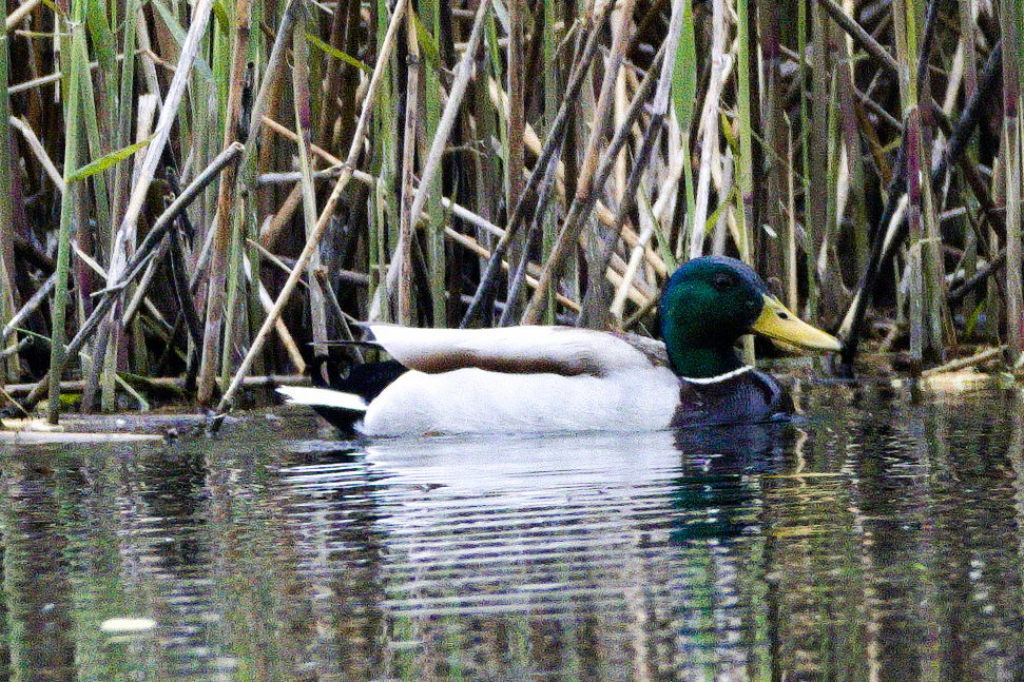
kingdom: Animalia
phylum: Chordata
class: Aves
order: Anseriformes
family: Anatidae
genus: Anas
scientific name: Anas platyrhynchos
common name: Mallard
